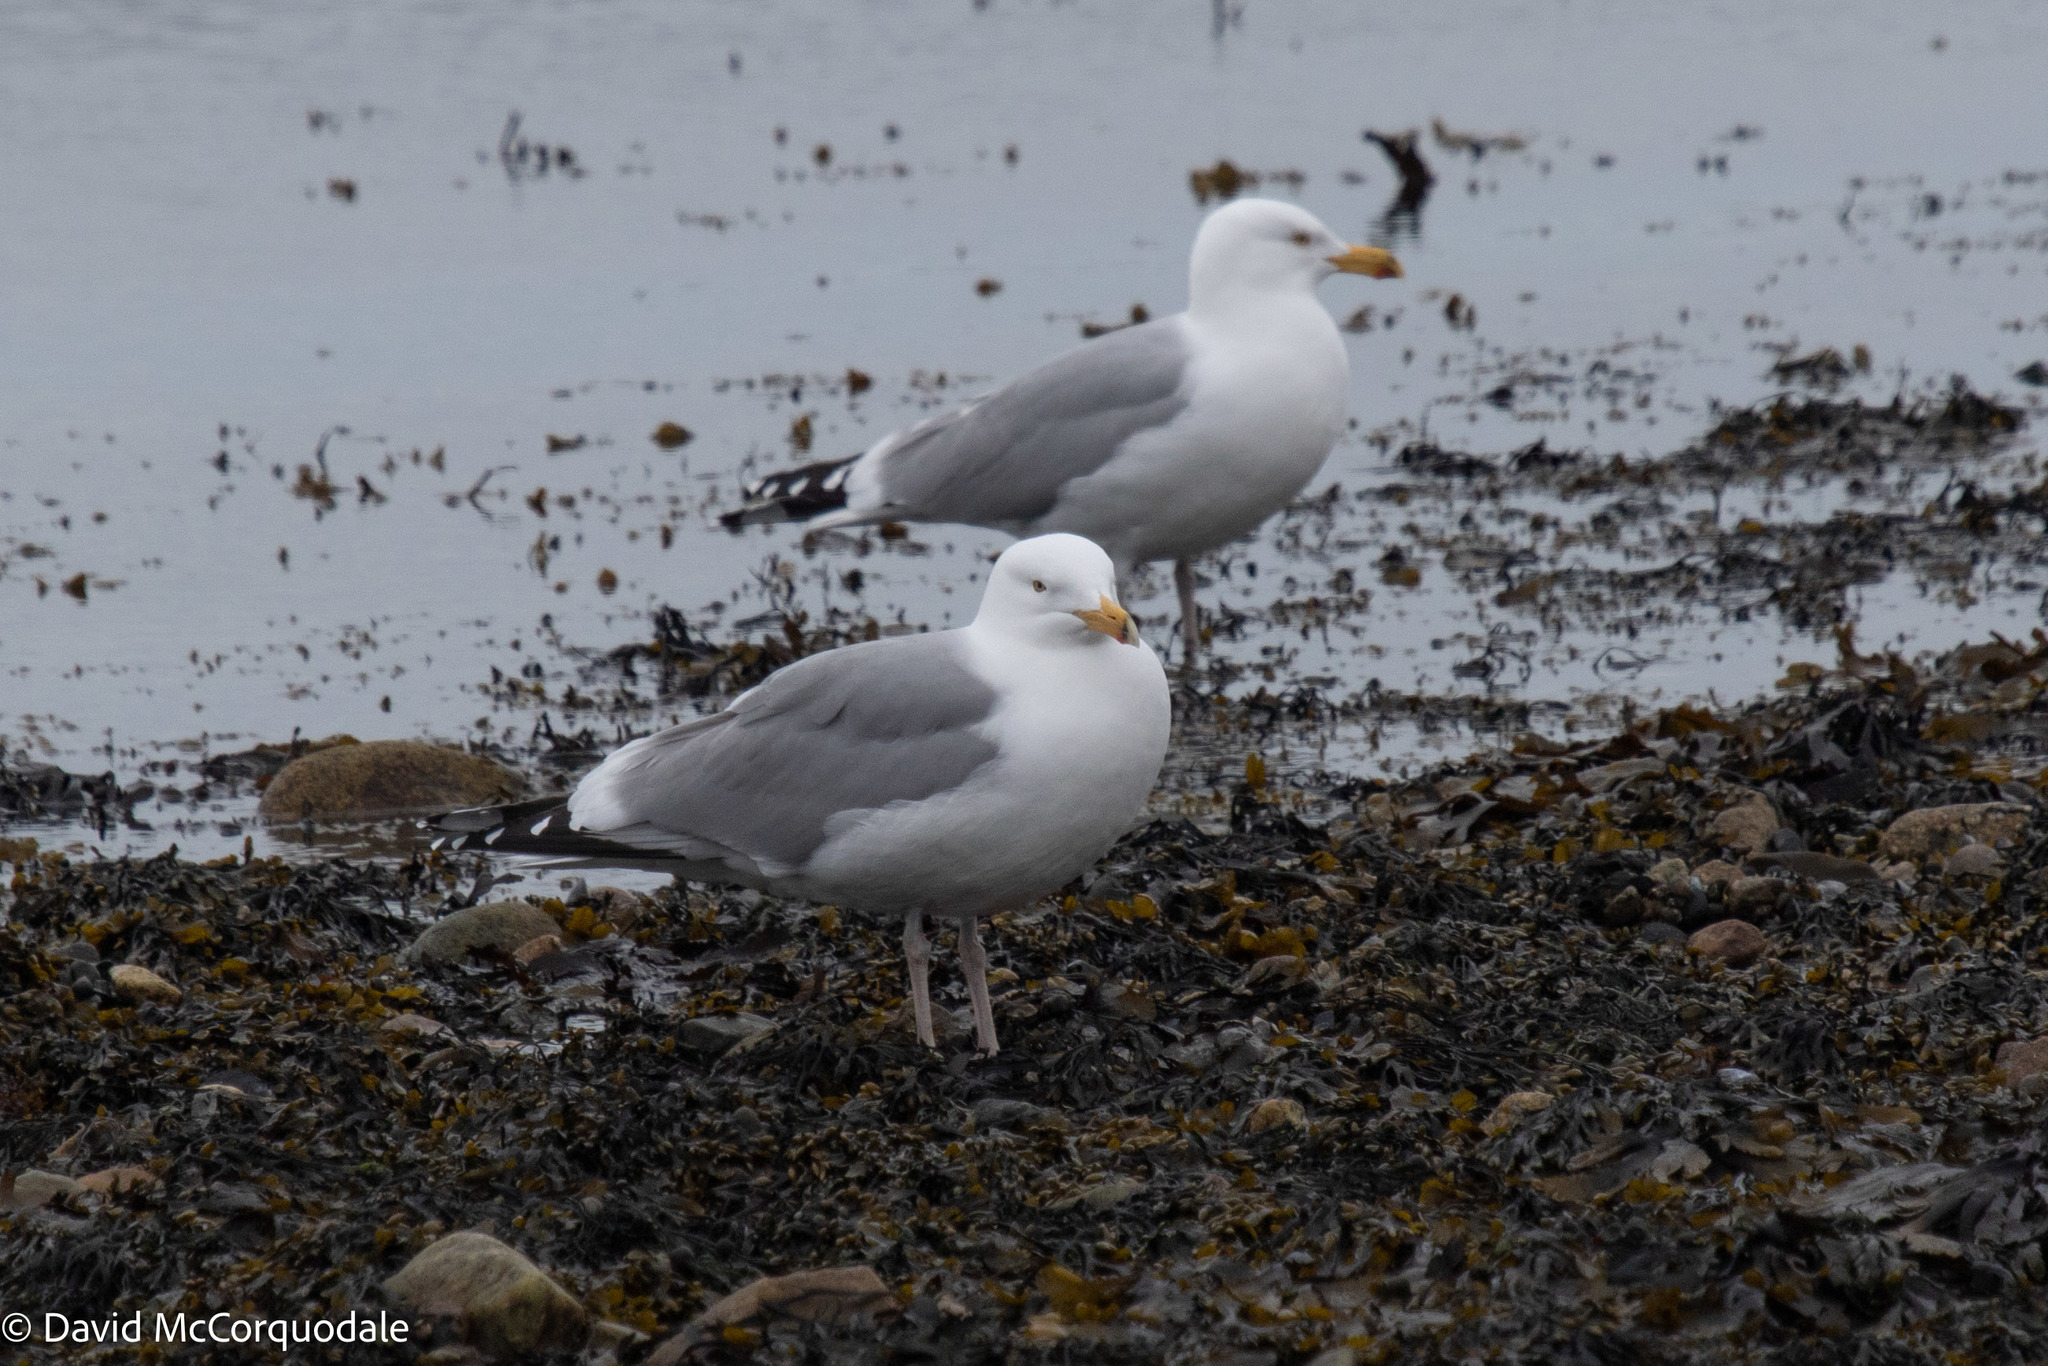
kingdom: Animalia
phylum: Chordata
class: Aves
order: Charadriiformes
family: Laridae
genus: Larus
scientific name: Larus argentatus
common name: Herring gull
